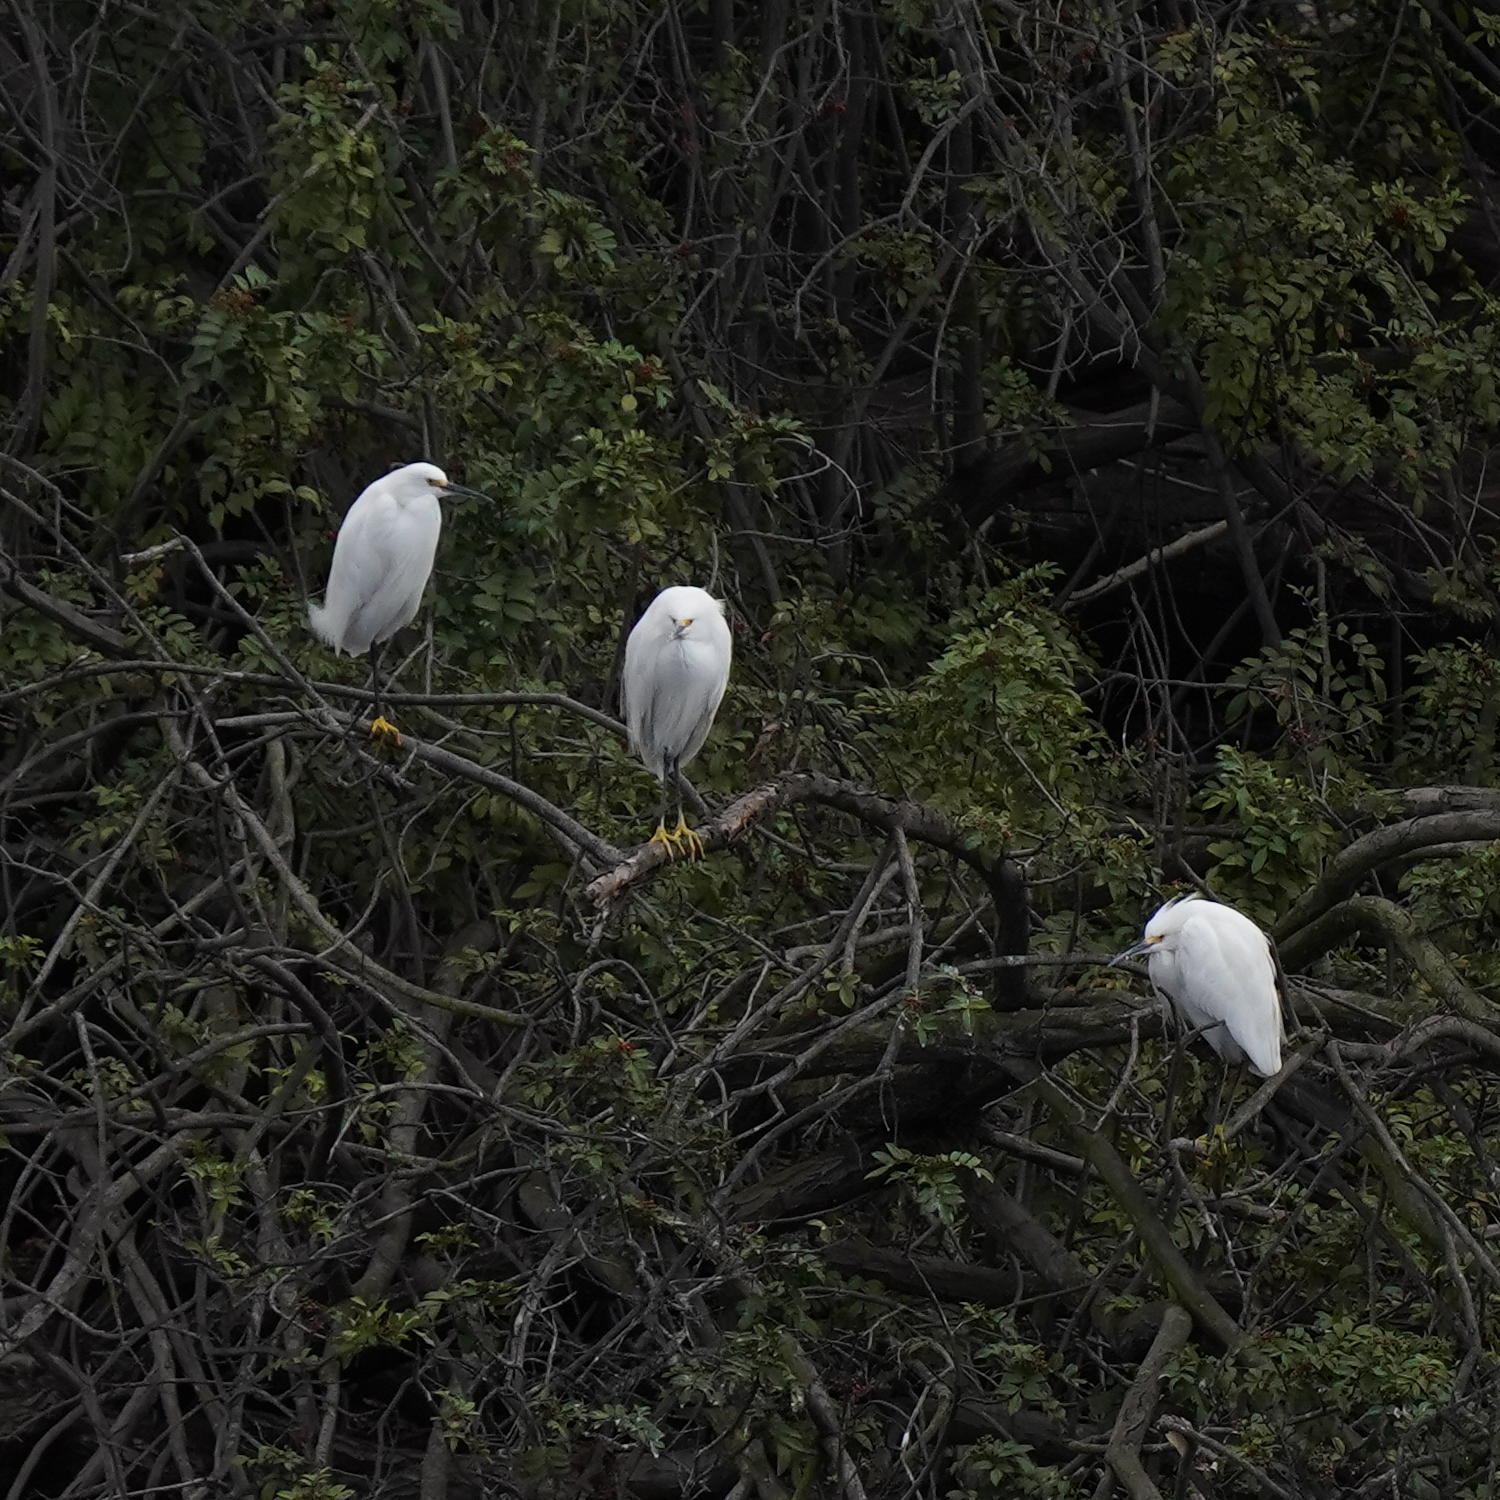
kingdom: Animalia
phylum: Chordata
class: Aves
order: Pelecaniformes
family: Ardeidae
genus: Egretta
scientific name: Egretta thula
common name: Snowy egret
